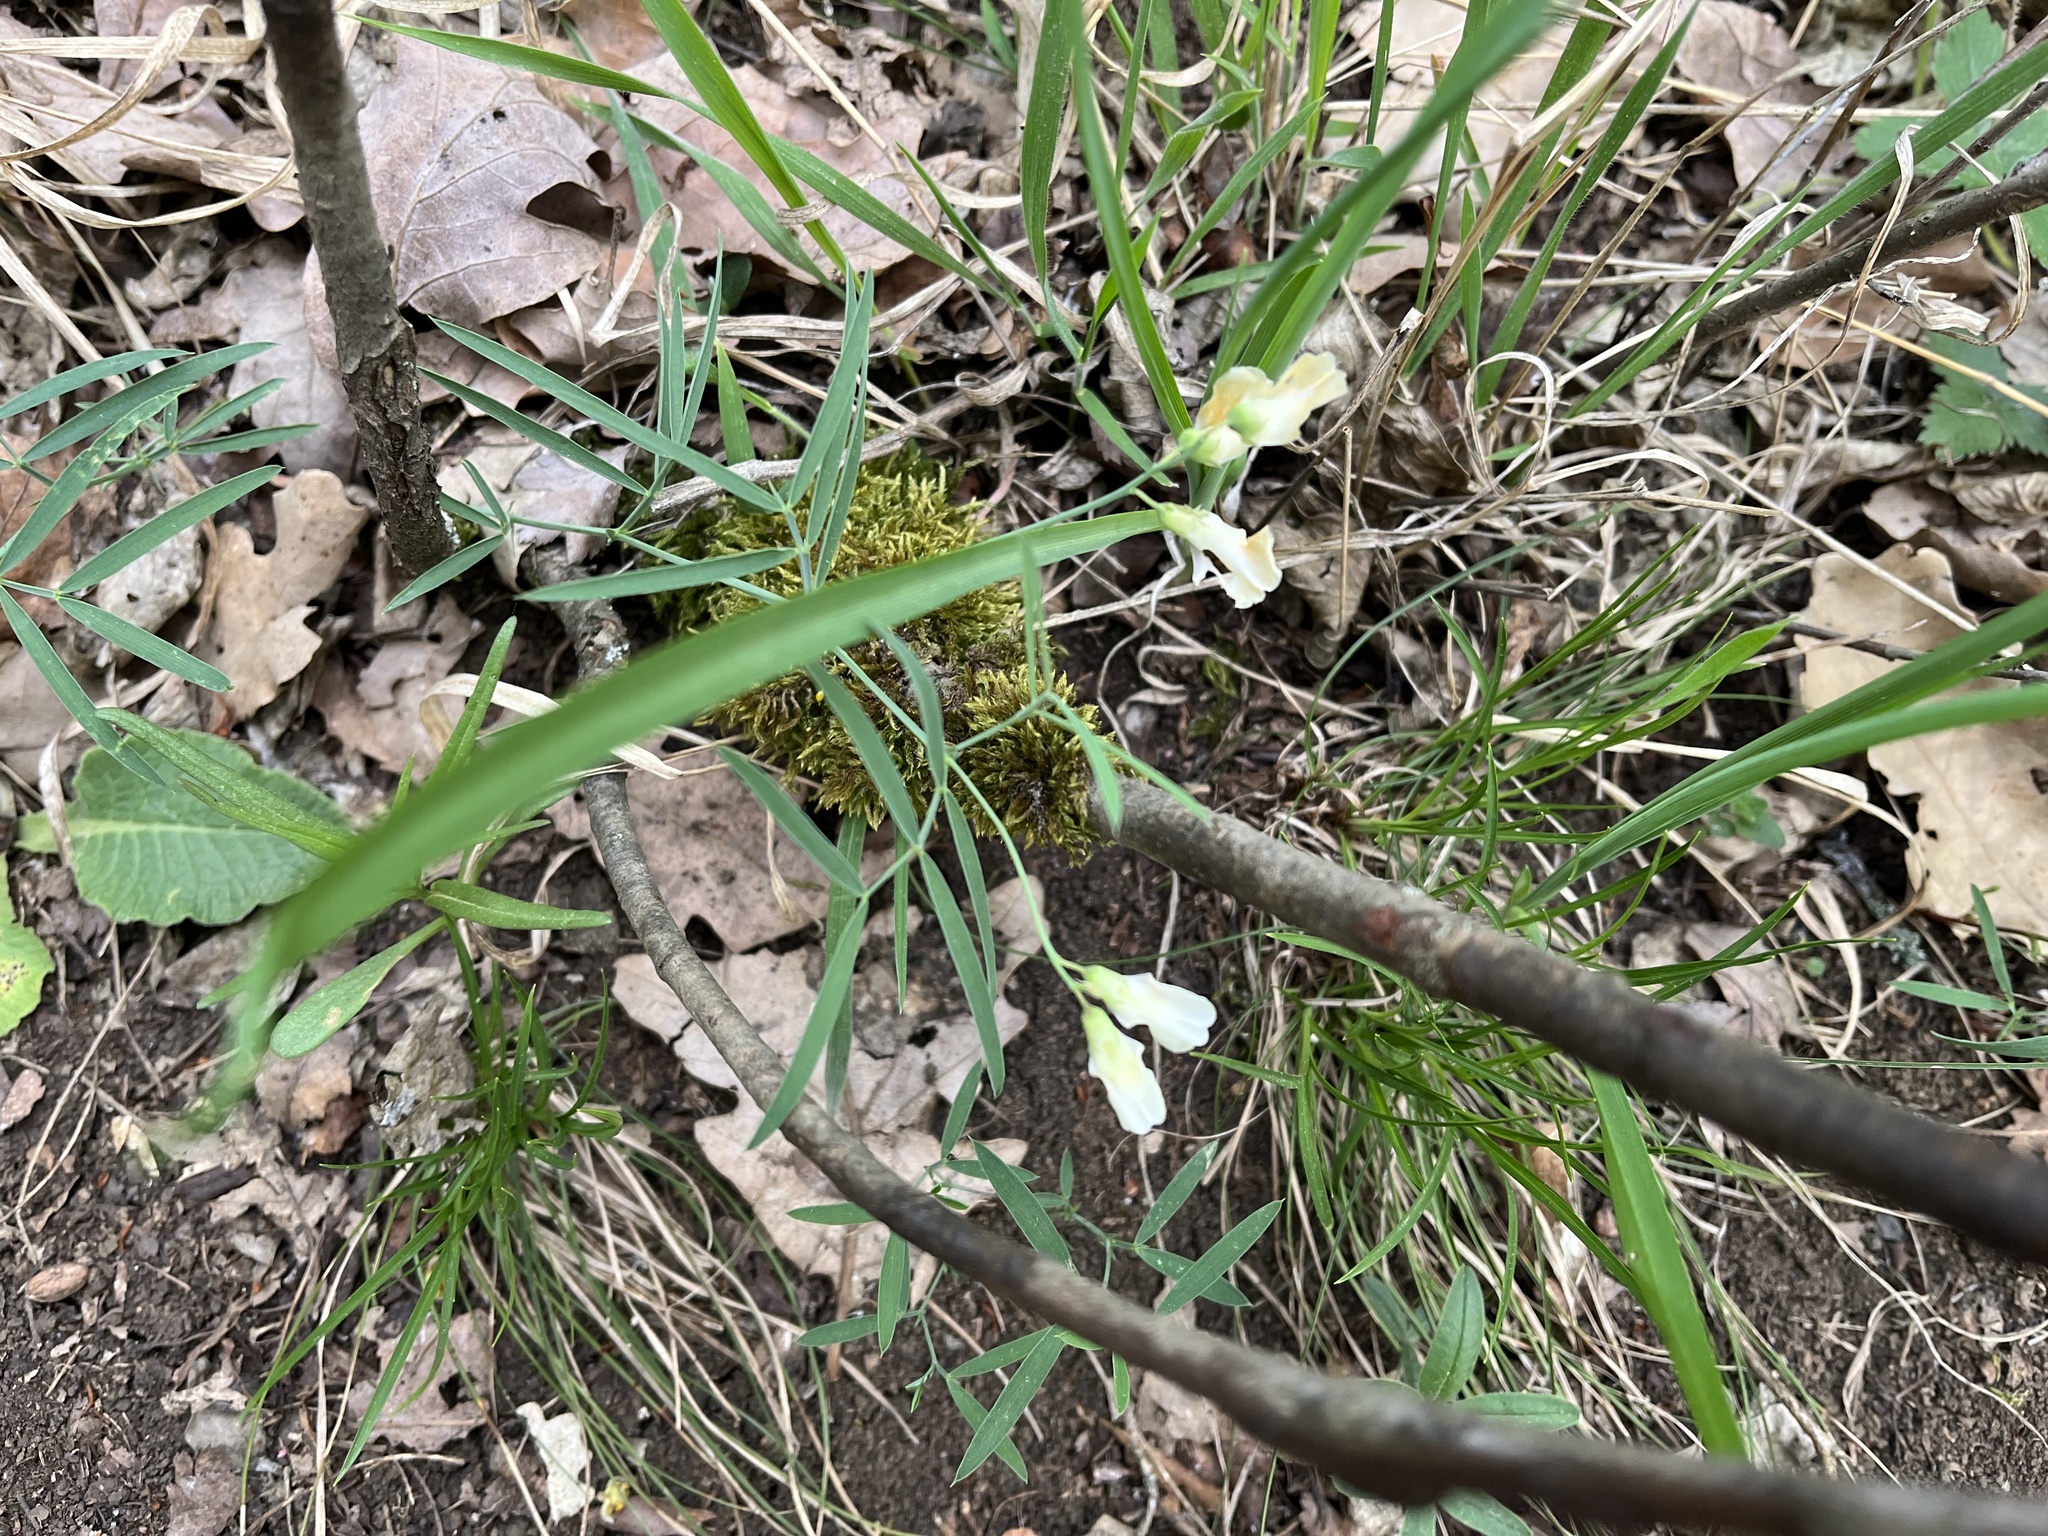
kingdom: Plantae
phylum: Tracheophyta
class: Magnoliopsida
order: Fabales
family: Fabaceae
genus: Lathyrus
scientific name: Lathyrus pannonicus
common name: Pea
